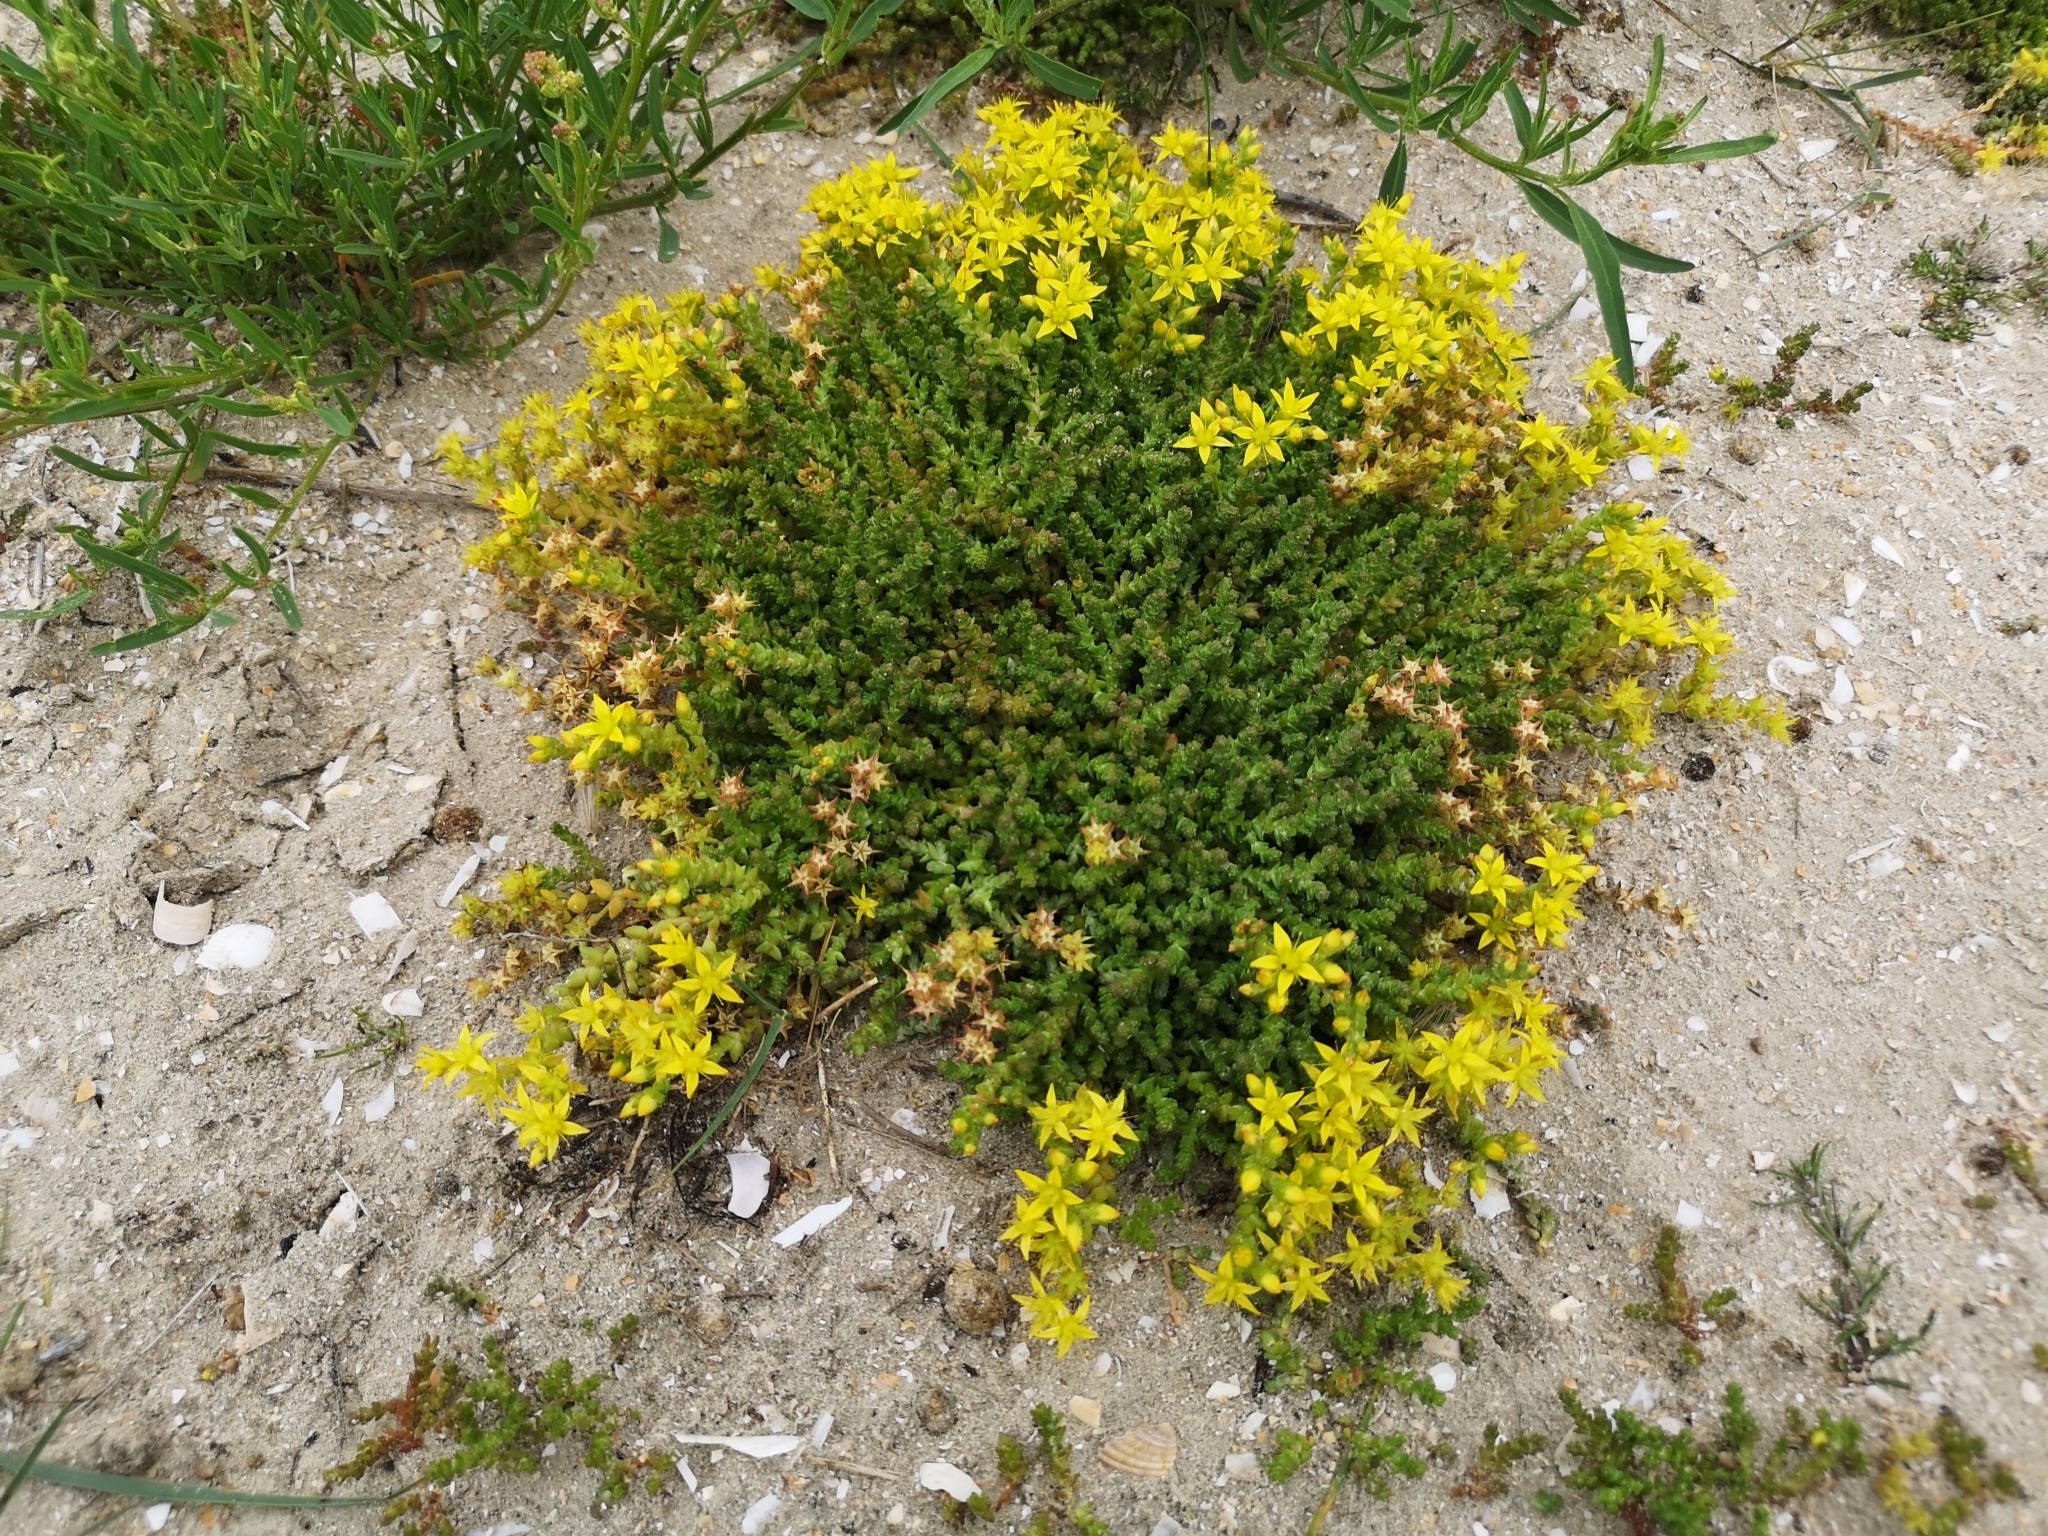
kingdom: Plantae
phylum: Tracheophyta
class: Magnoliopsida
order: Saxifragales
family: Crassulaceae
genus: Sedum
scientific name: Sedum acre
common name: Biting stonecrop
